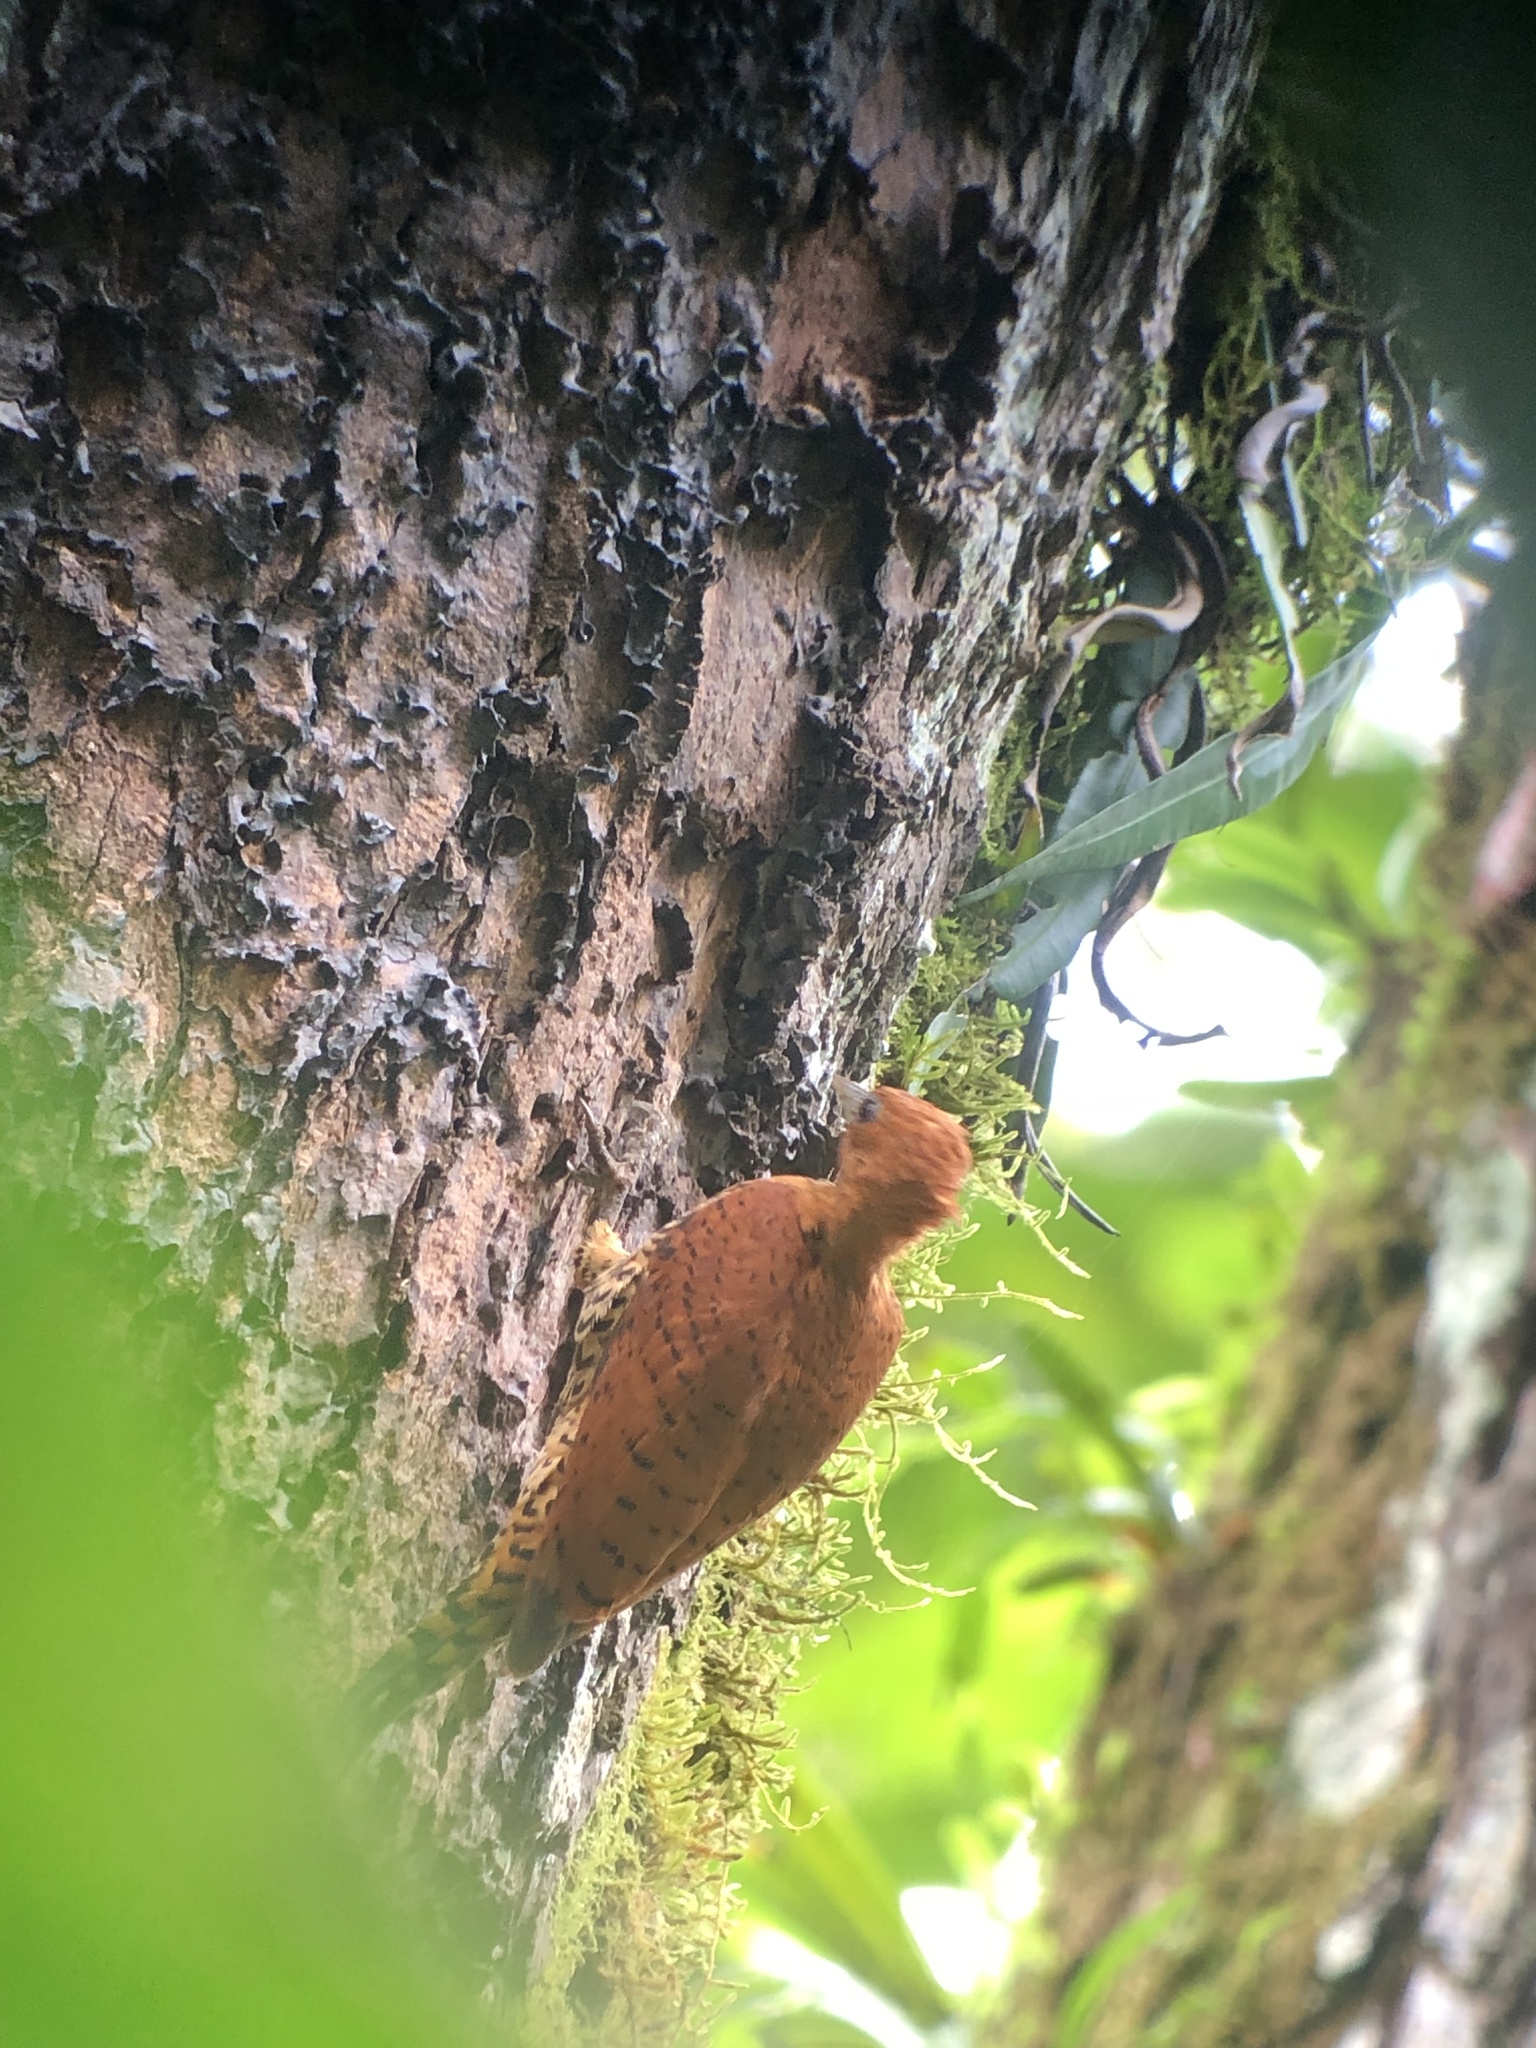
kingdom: Animalia
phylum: Chordata
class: Aves
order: Piciformes
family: Picidae
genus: Celeus
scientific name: Celeus loricatus
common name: Cinnamon woodpecker
